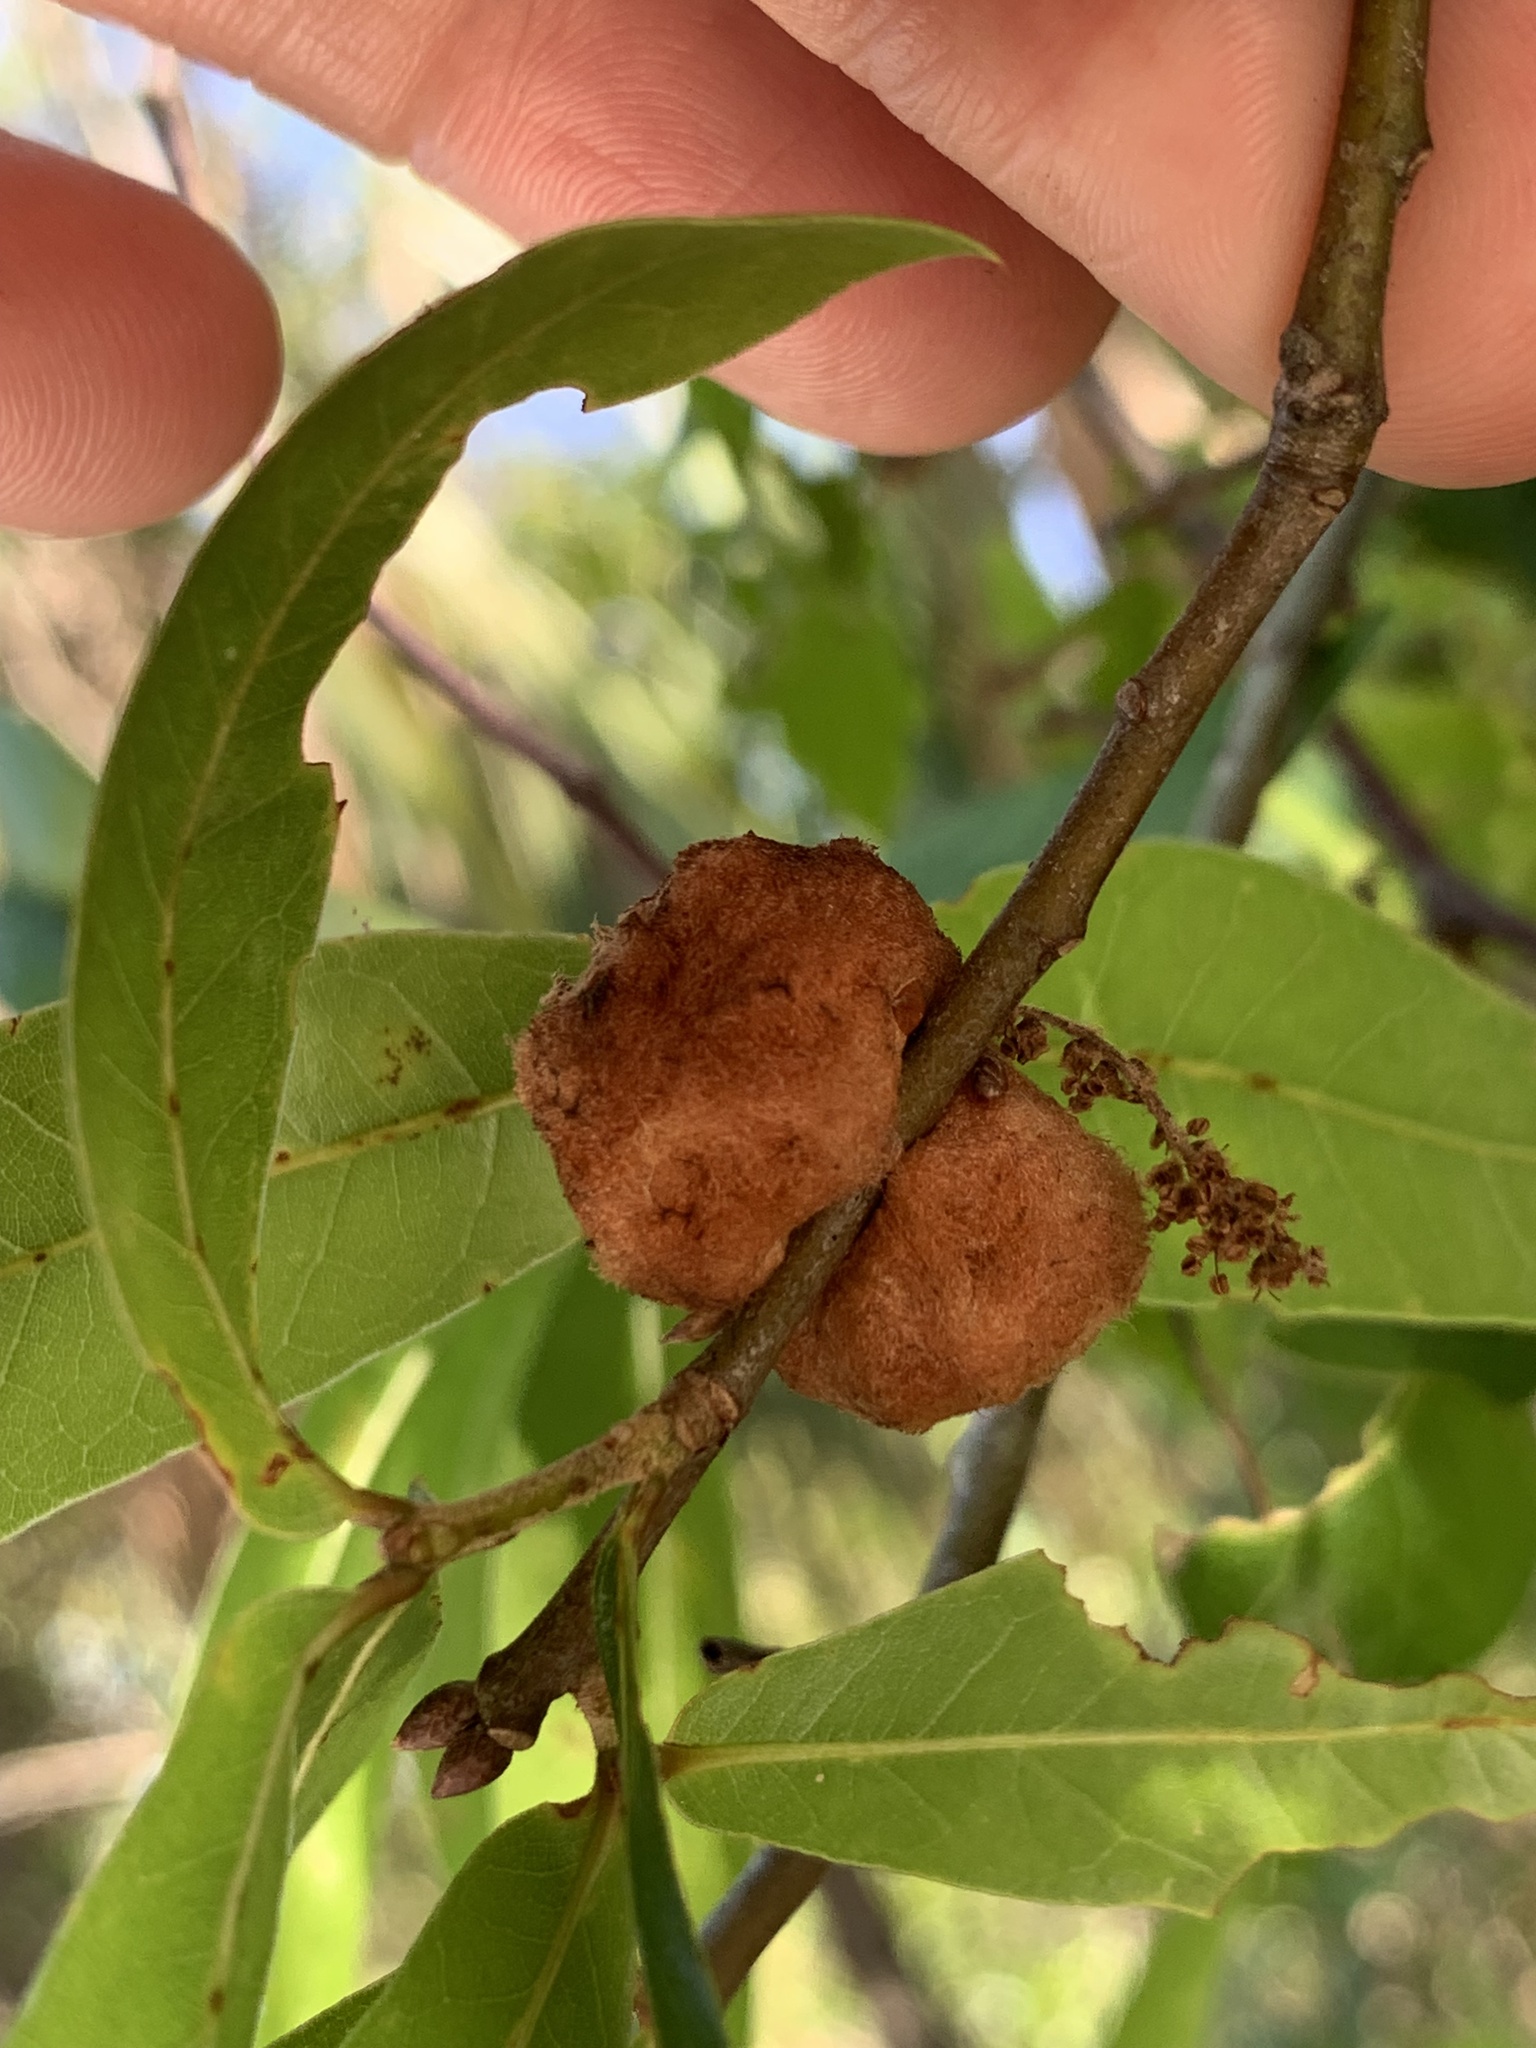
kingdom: Animalia
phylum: Arthropoda
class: Insecta
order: Hymenoptera
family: Cynipidae
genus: Callirhytis
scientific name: Callirhytis
